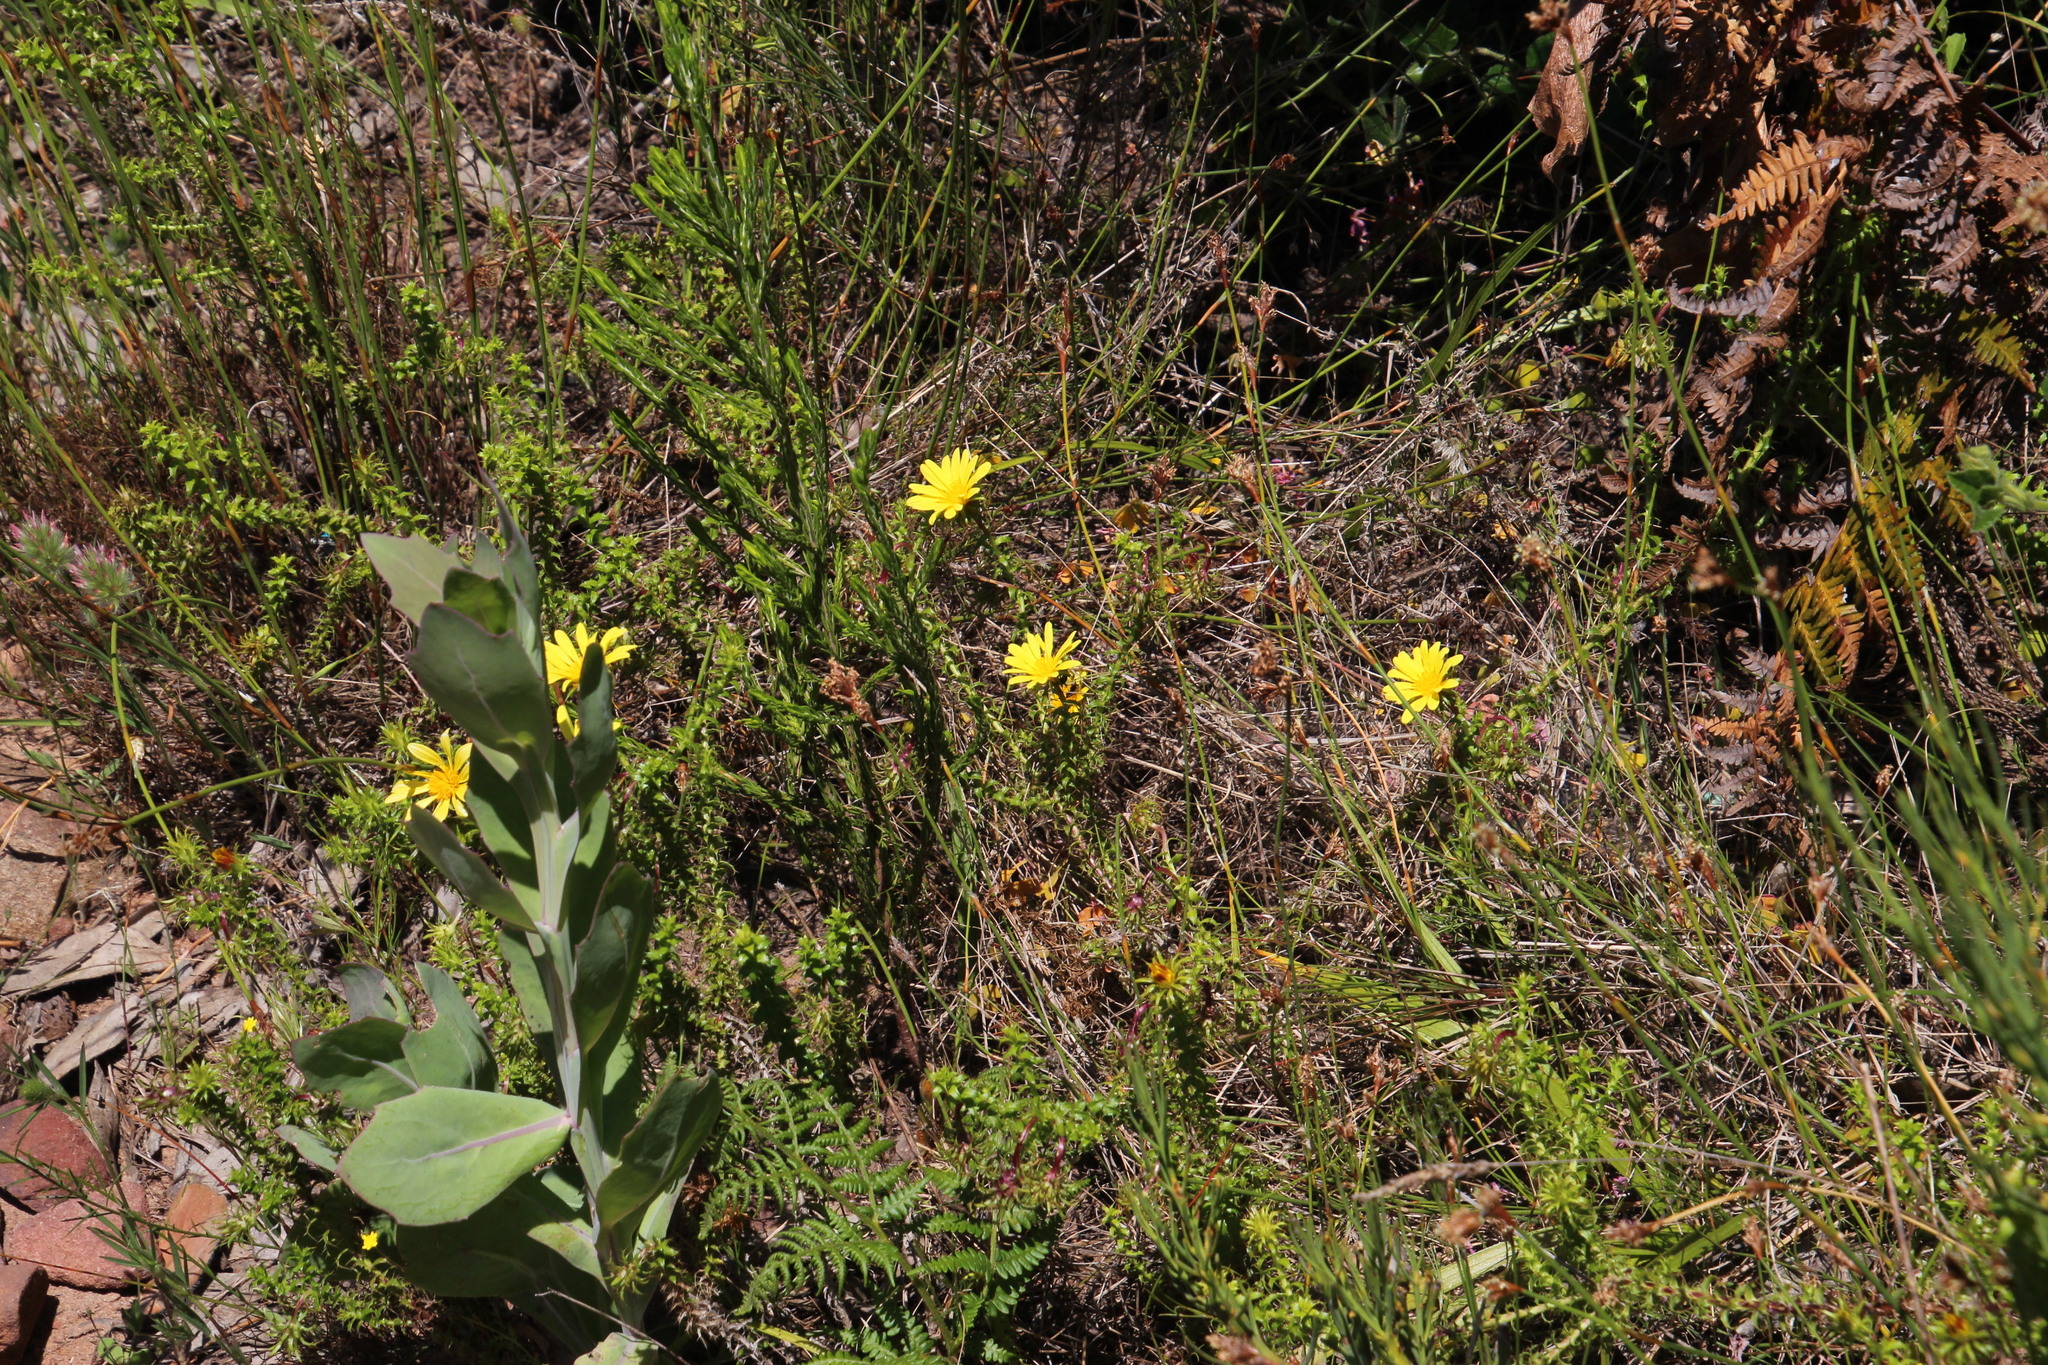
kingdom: Plantae
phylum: Tracheophyta
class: Magnoliopsida
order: Asterales
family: Asteraceae
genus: Cullumia
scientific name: Cullumia setosa
